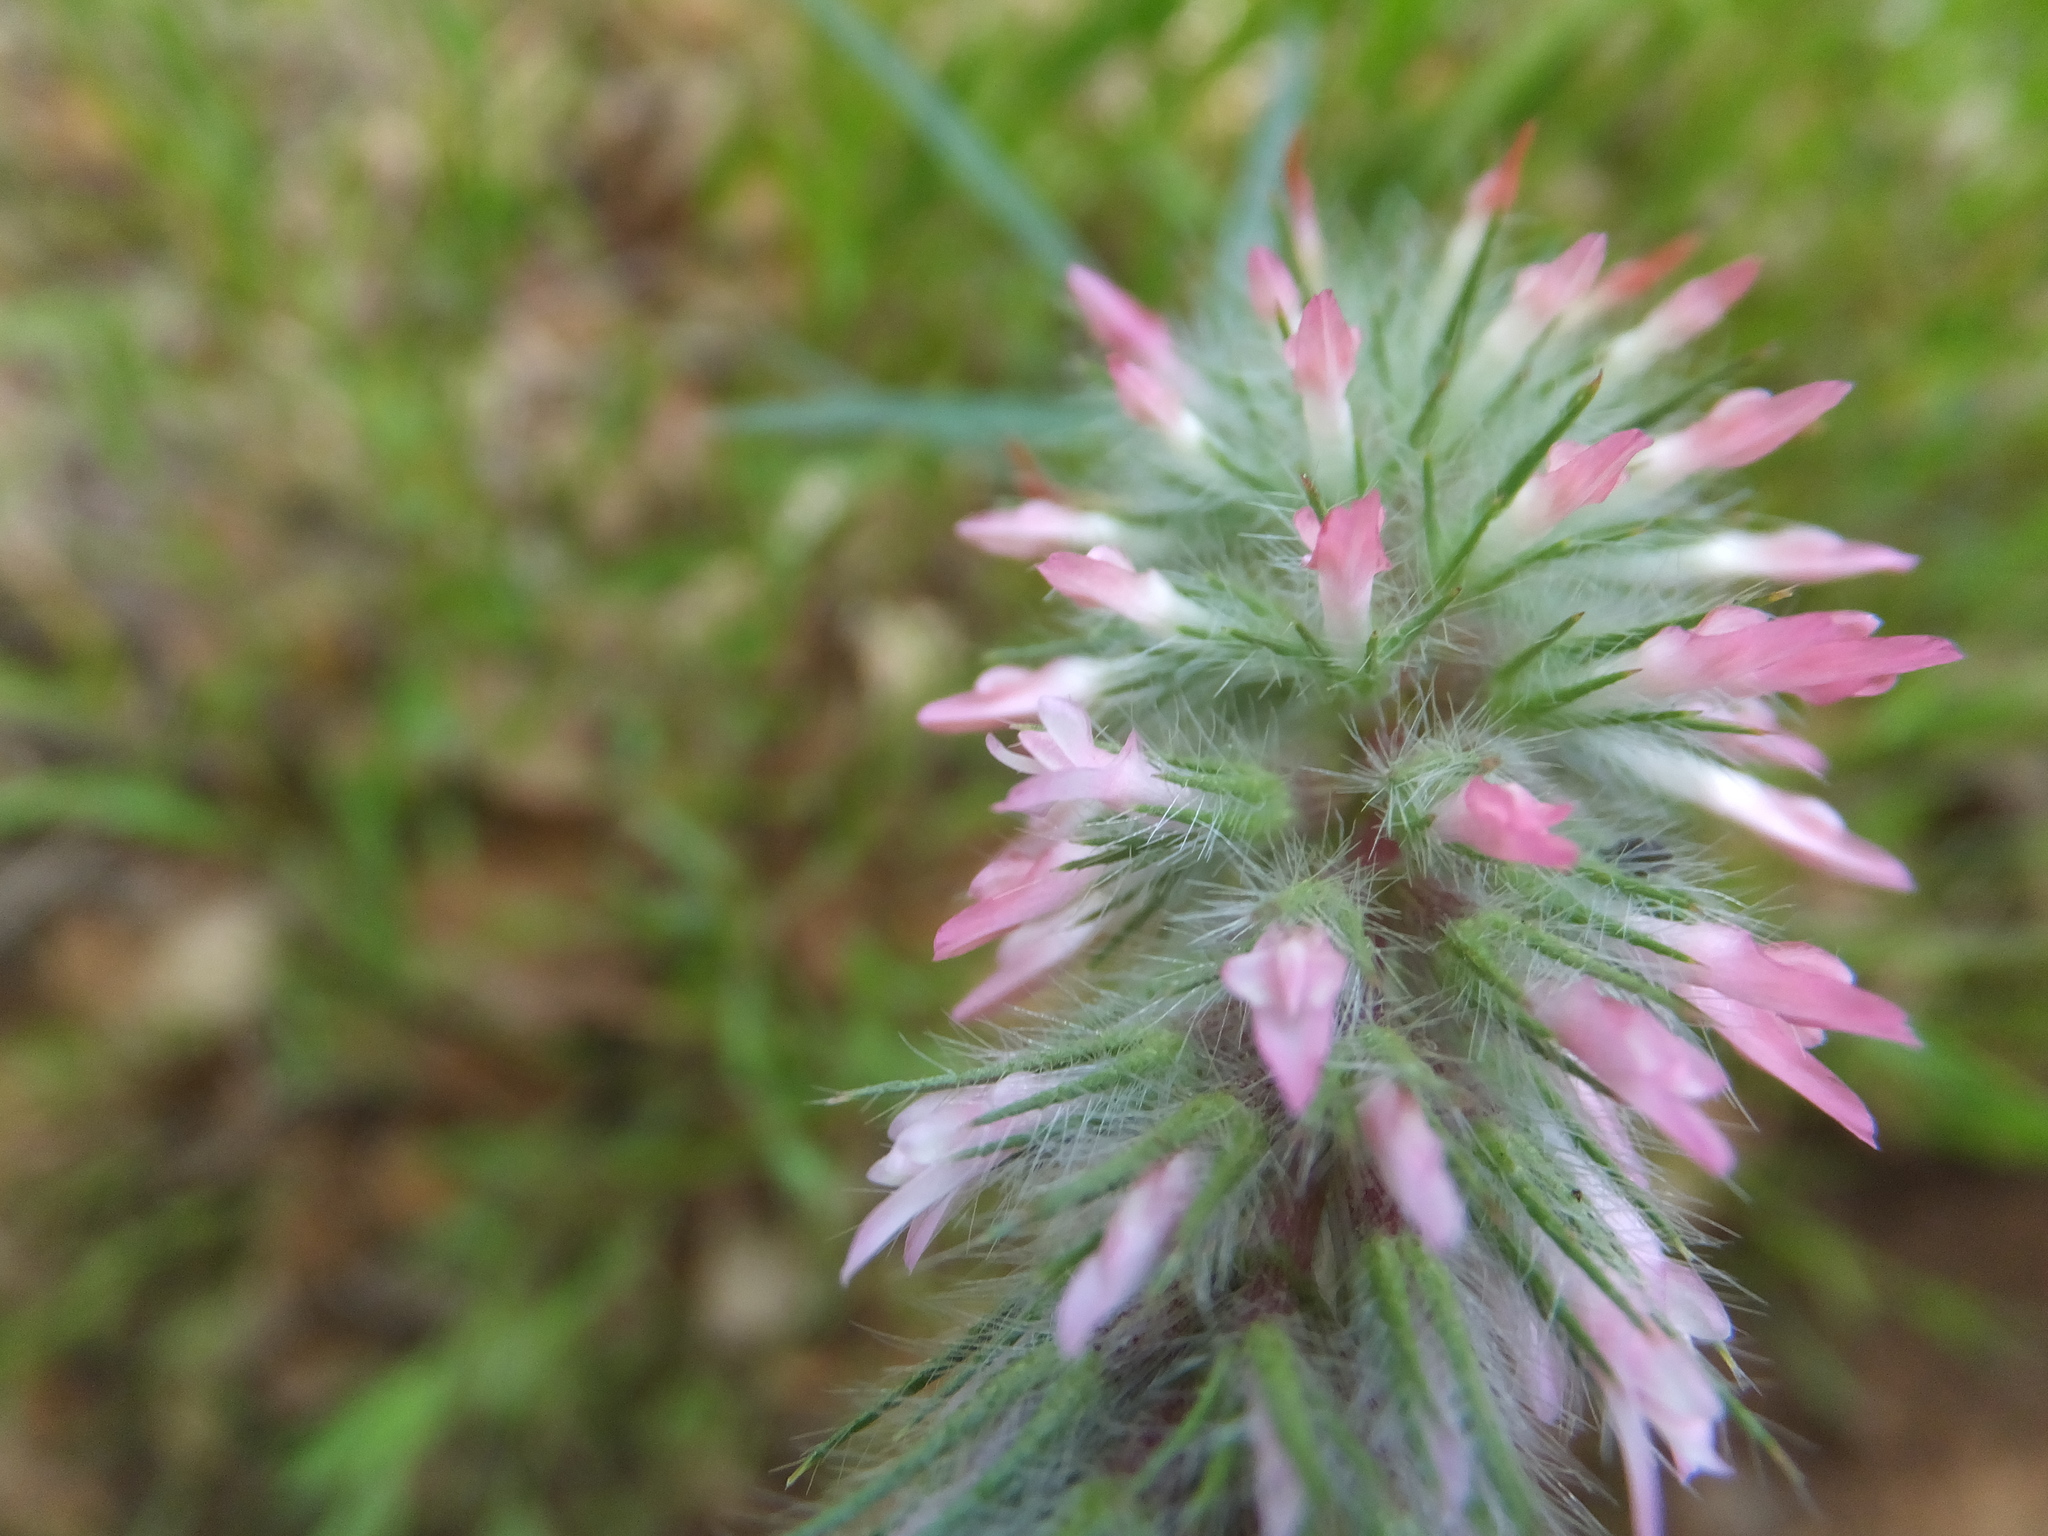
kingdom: Plantae
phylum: Tracheophyta
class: Magnoliopsida
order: Fabales
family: Fabaceae
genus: Trifolium
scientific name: Trifolium angustifolium
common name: Narrow clover
